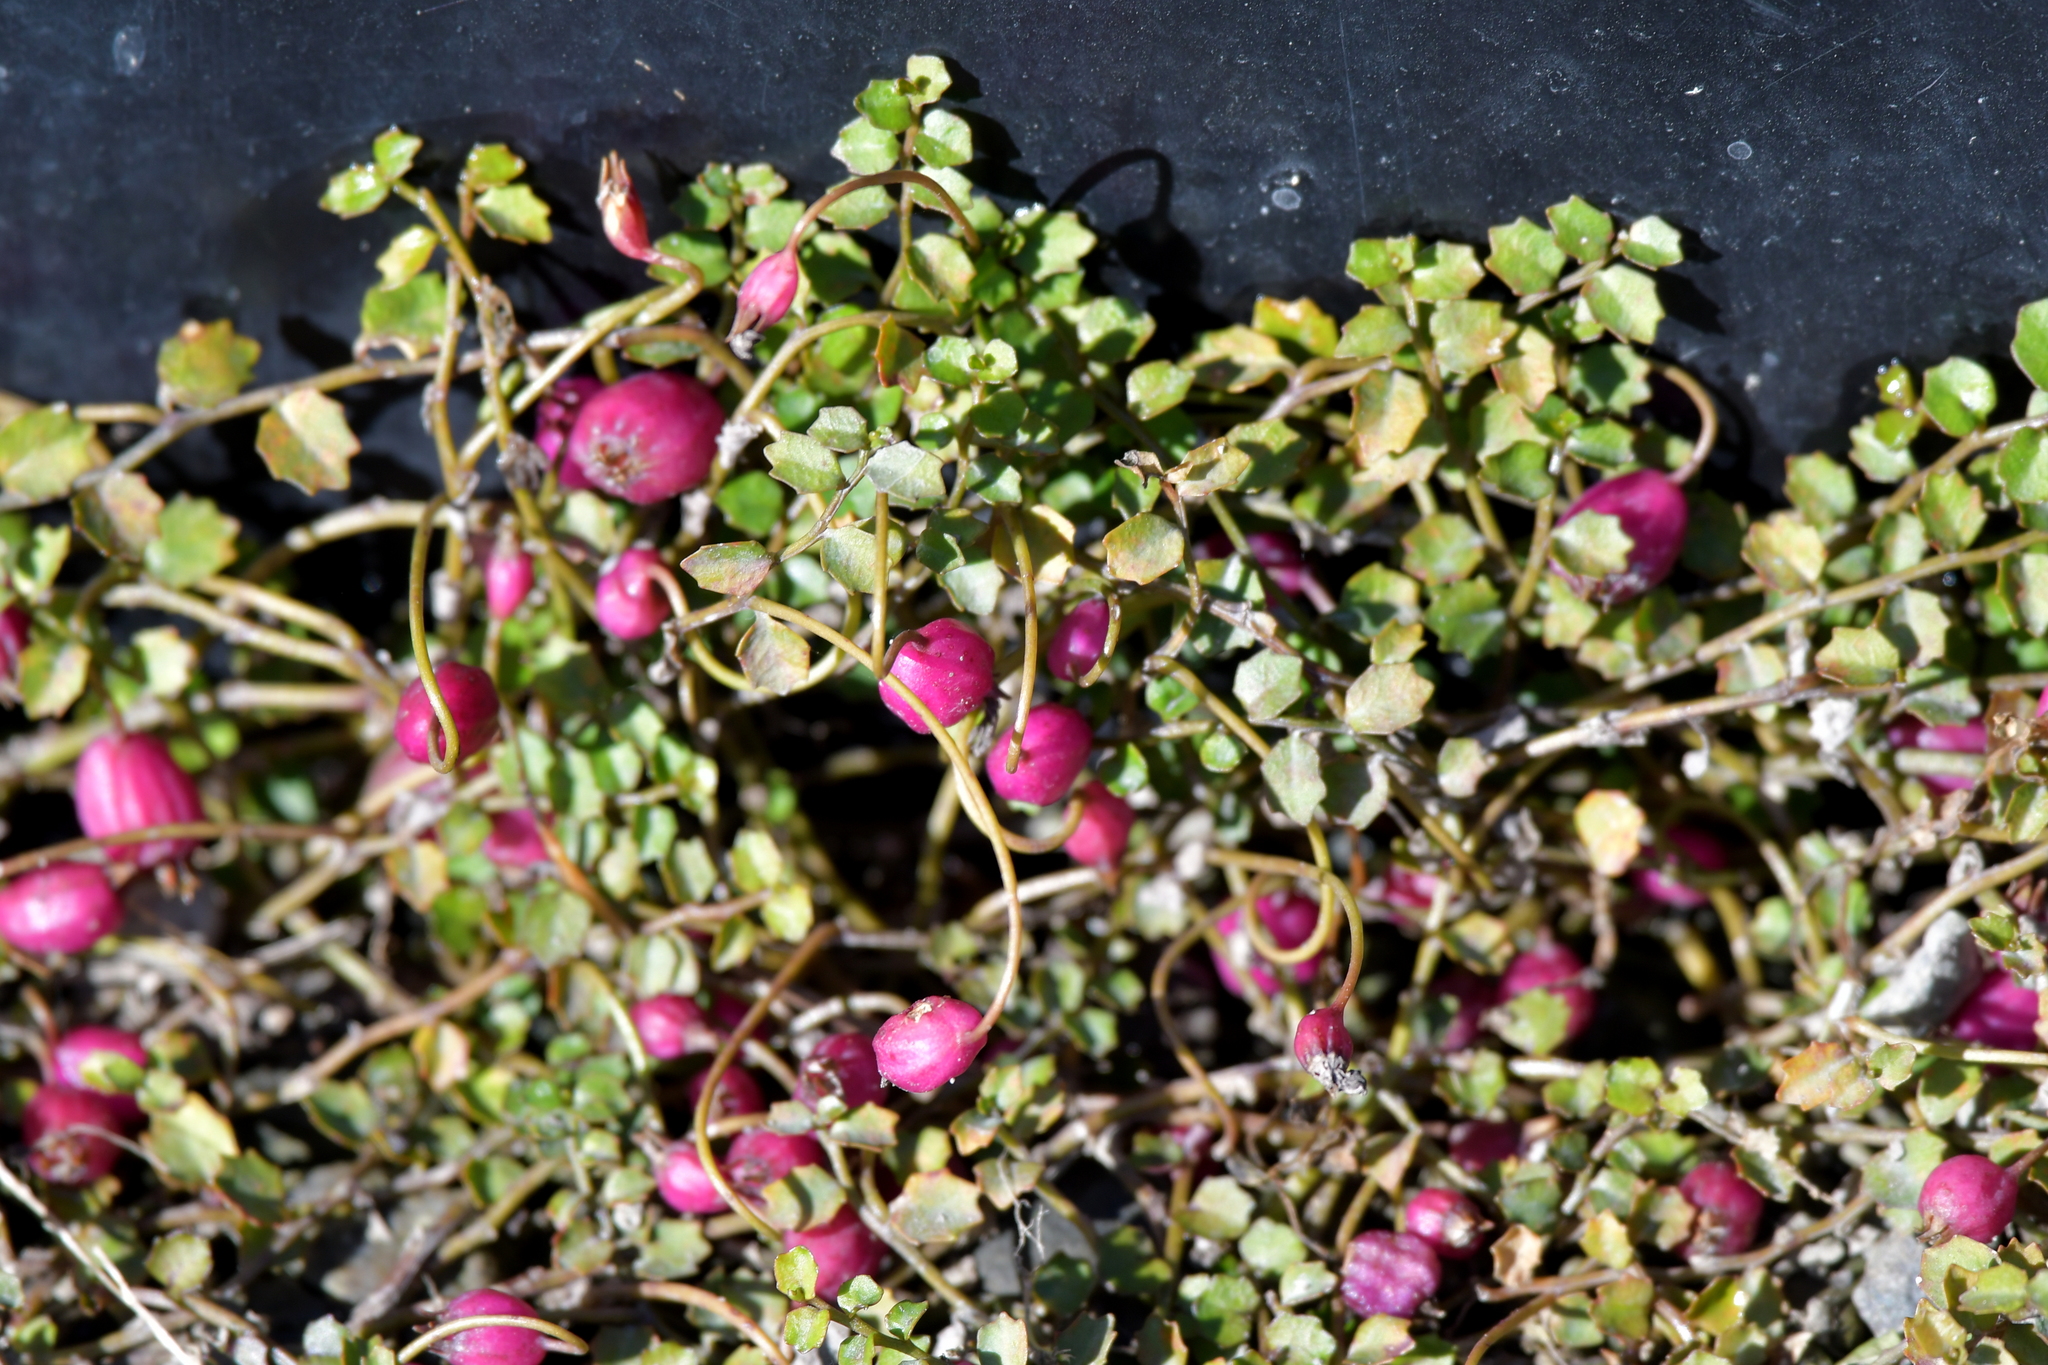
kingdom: Plantae
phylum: Tracheophyta
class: Magnoliopsida
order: Asterales
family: Campanulaceae
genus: Lobelia
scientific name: Lobelia angulata
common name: Lawn lobelia
